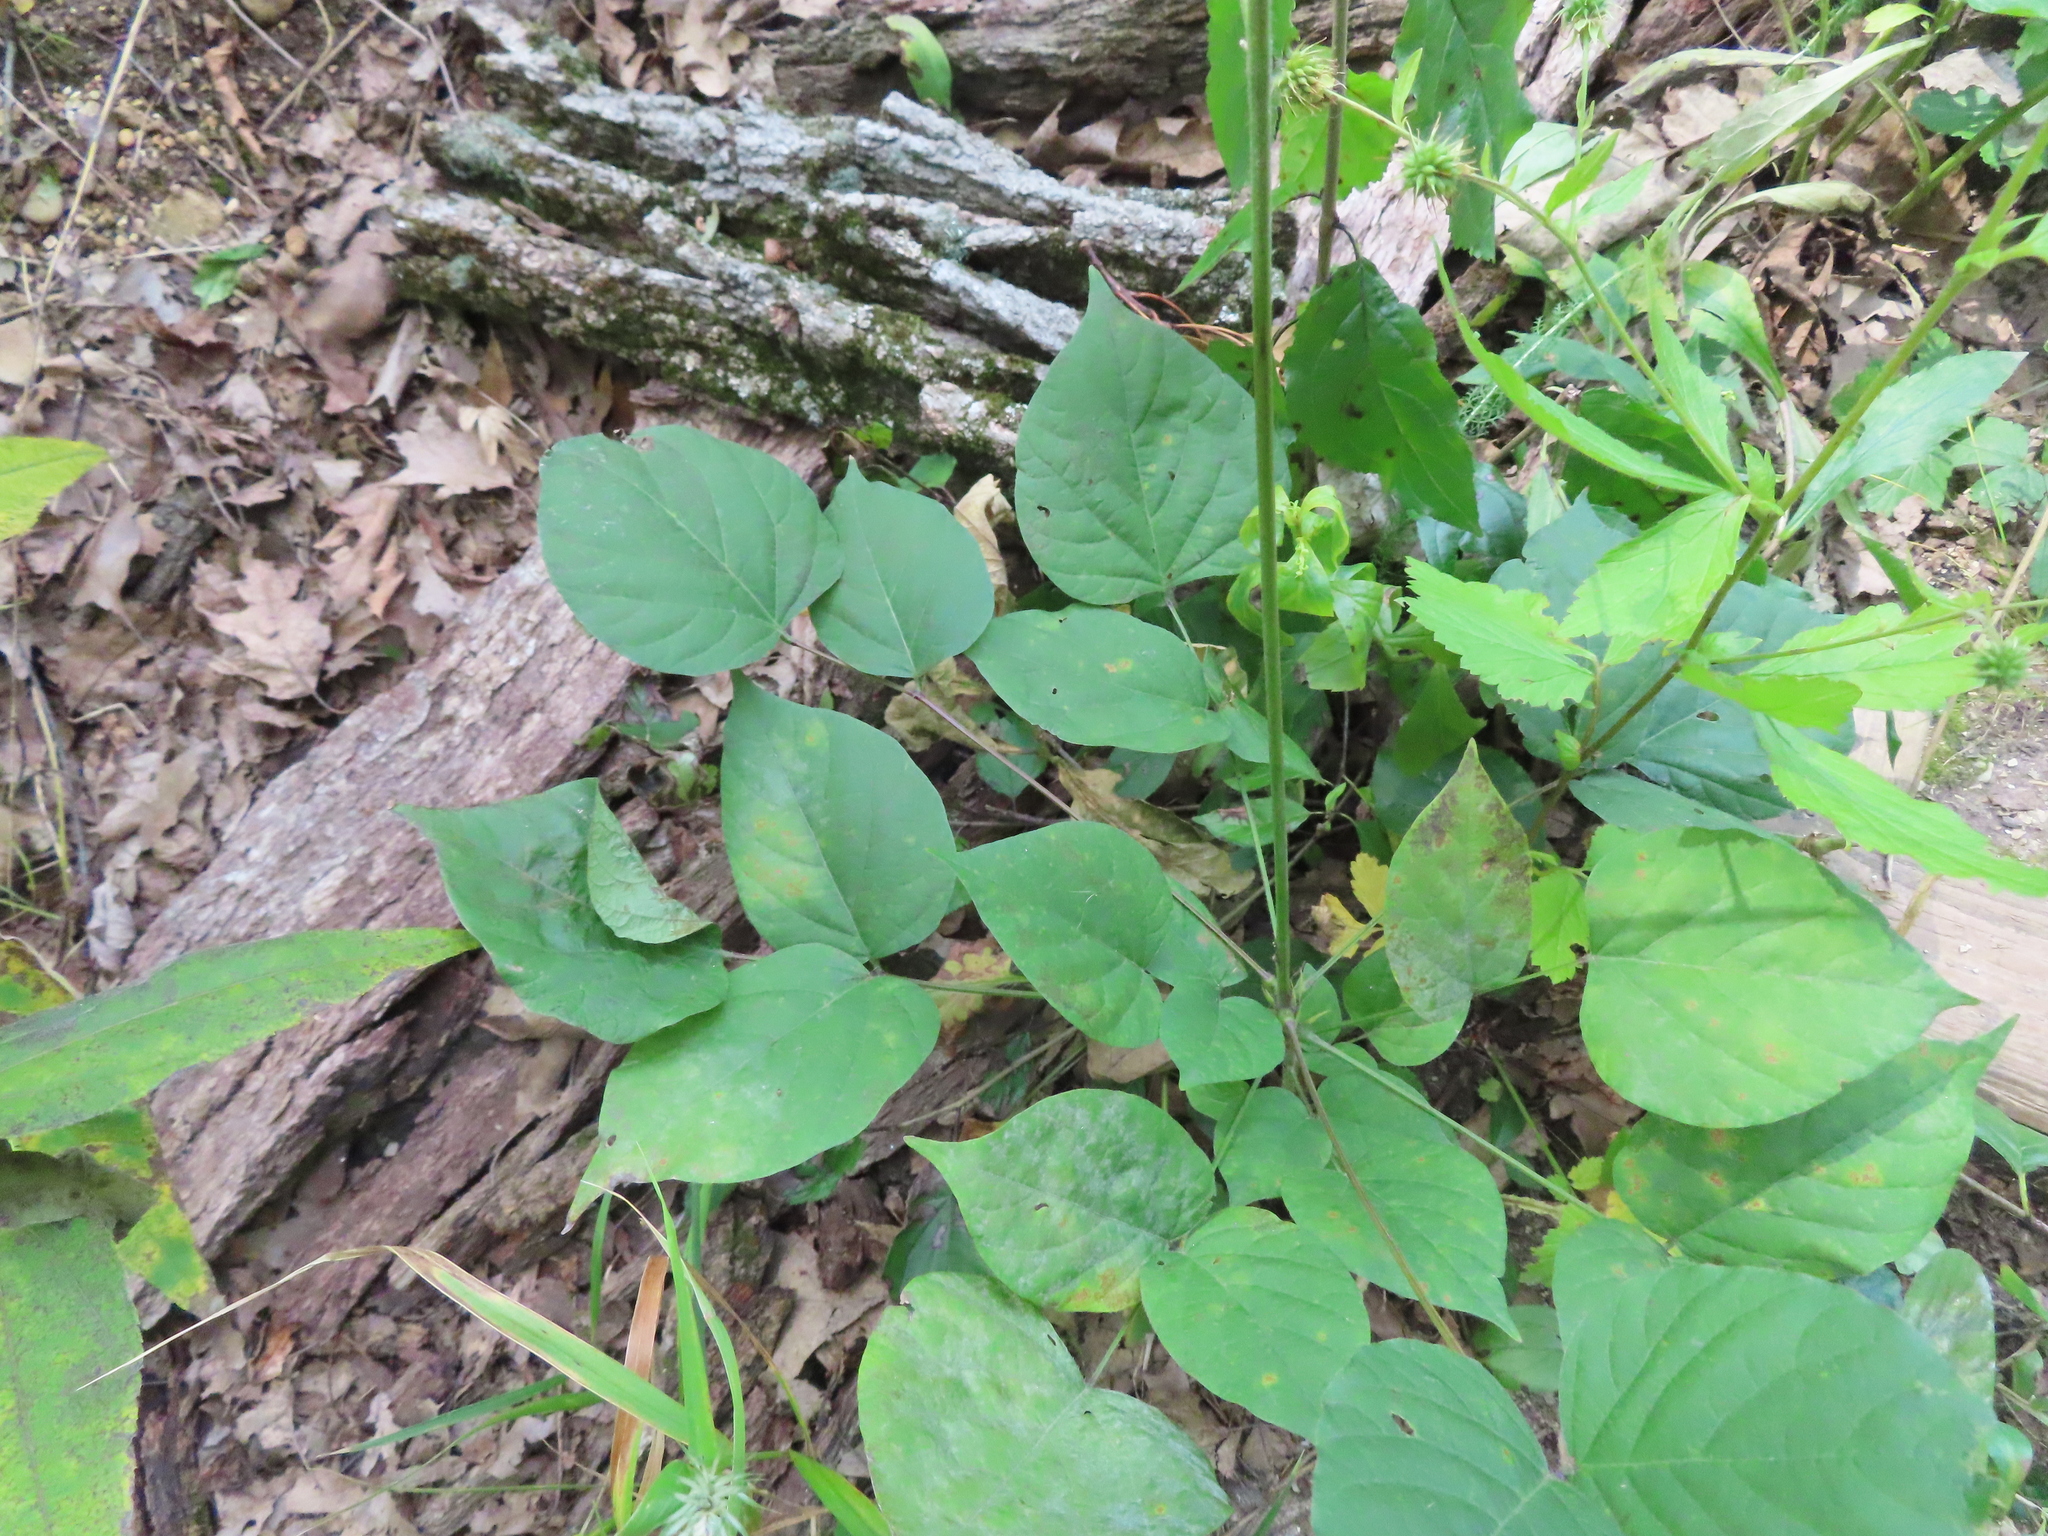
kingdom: Plantae
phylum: Tracheophyta
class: Magnoliopsida
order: Fabales
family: Fabaceae
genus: Hylodesmum
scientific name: Hylodesmum glutinosum
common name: Clustered-leaved tick-trefoil
